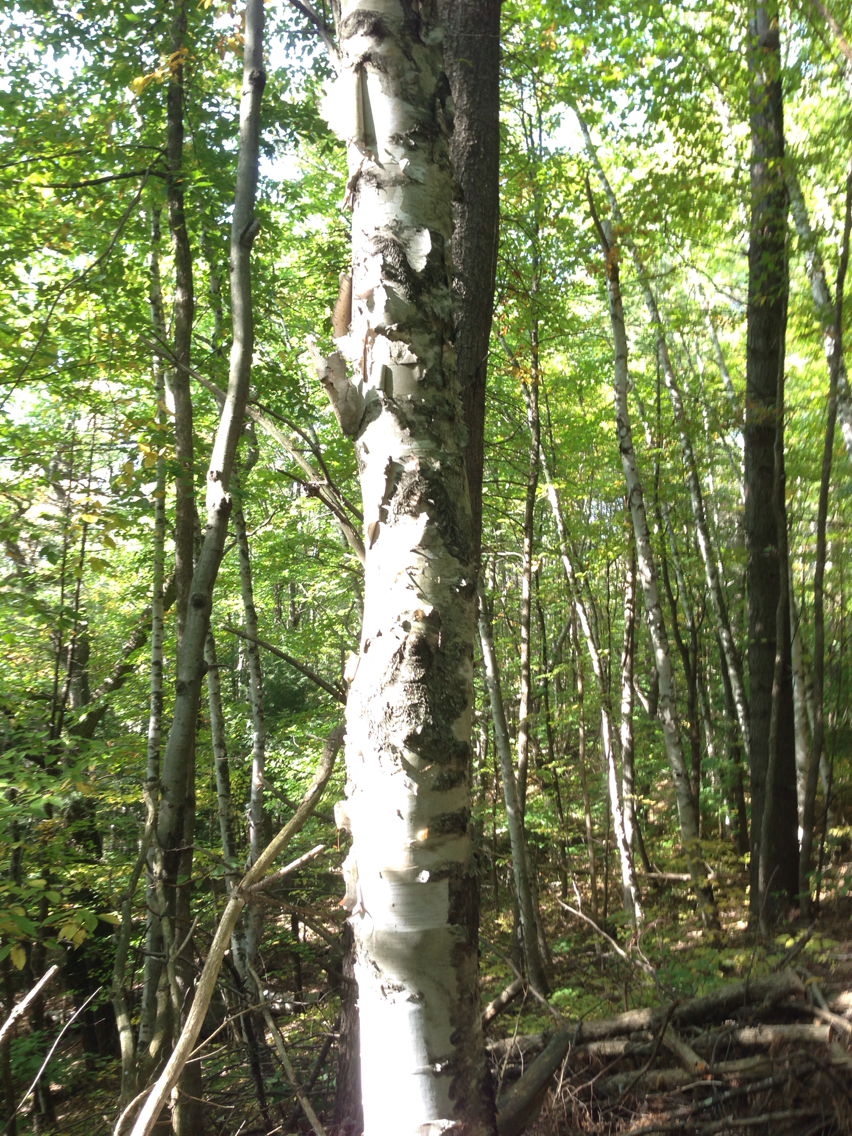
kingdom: Plantae
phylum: Tracheophyta
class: Magnoliopsida
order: Fagales
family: Betulaceae
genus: Betula
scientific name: Betula papyrifera
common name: Paper birch
